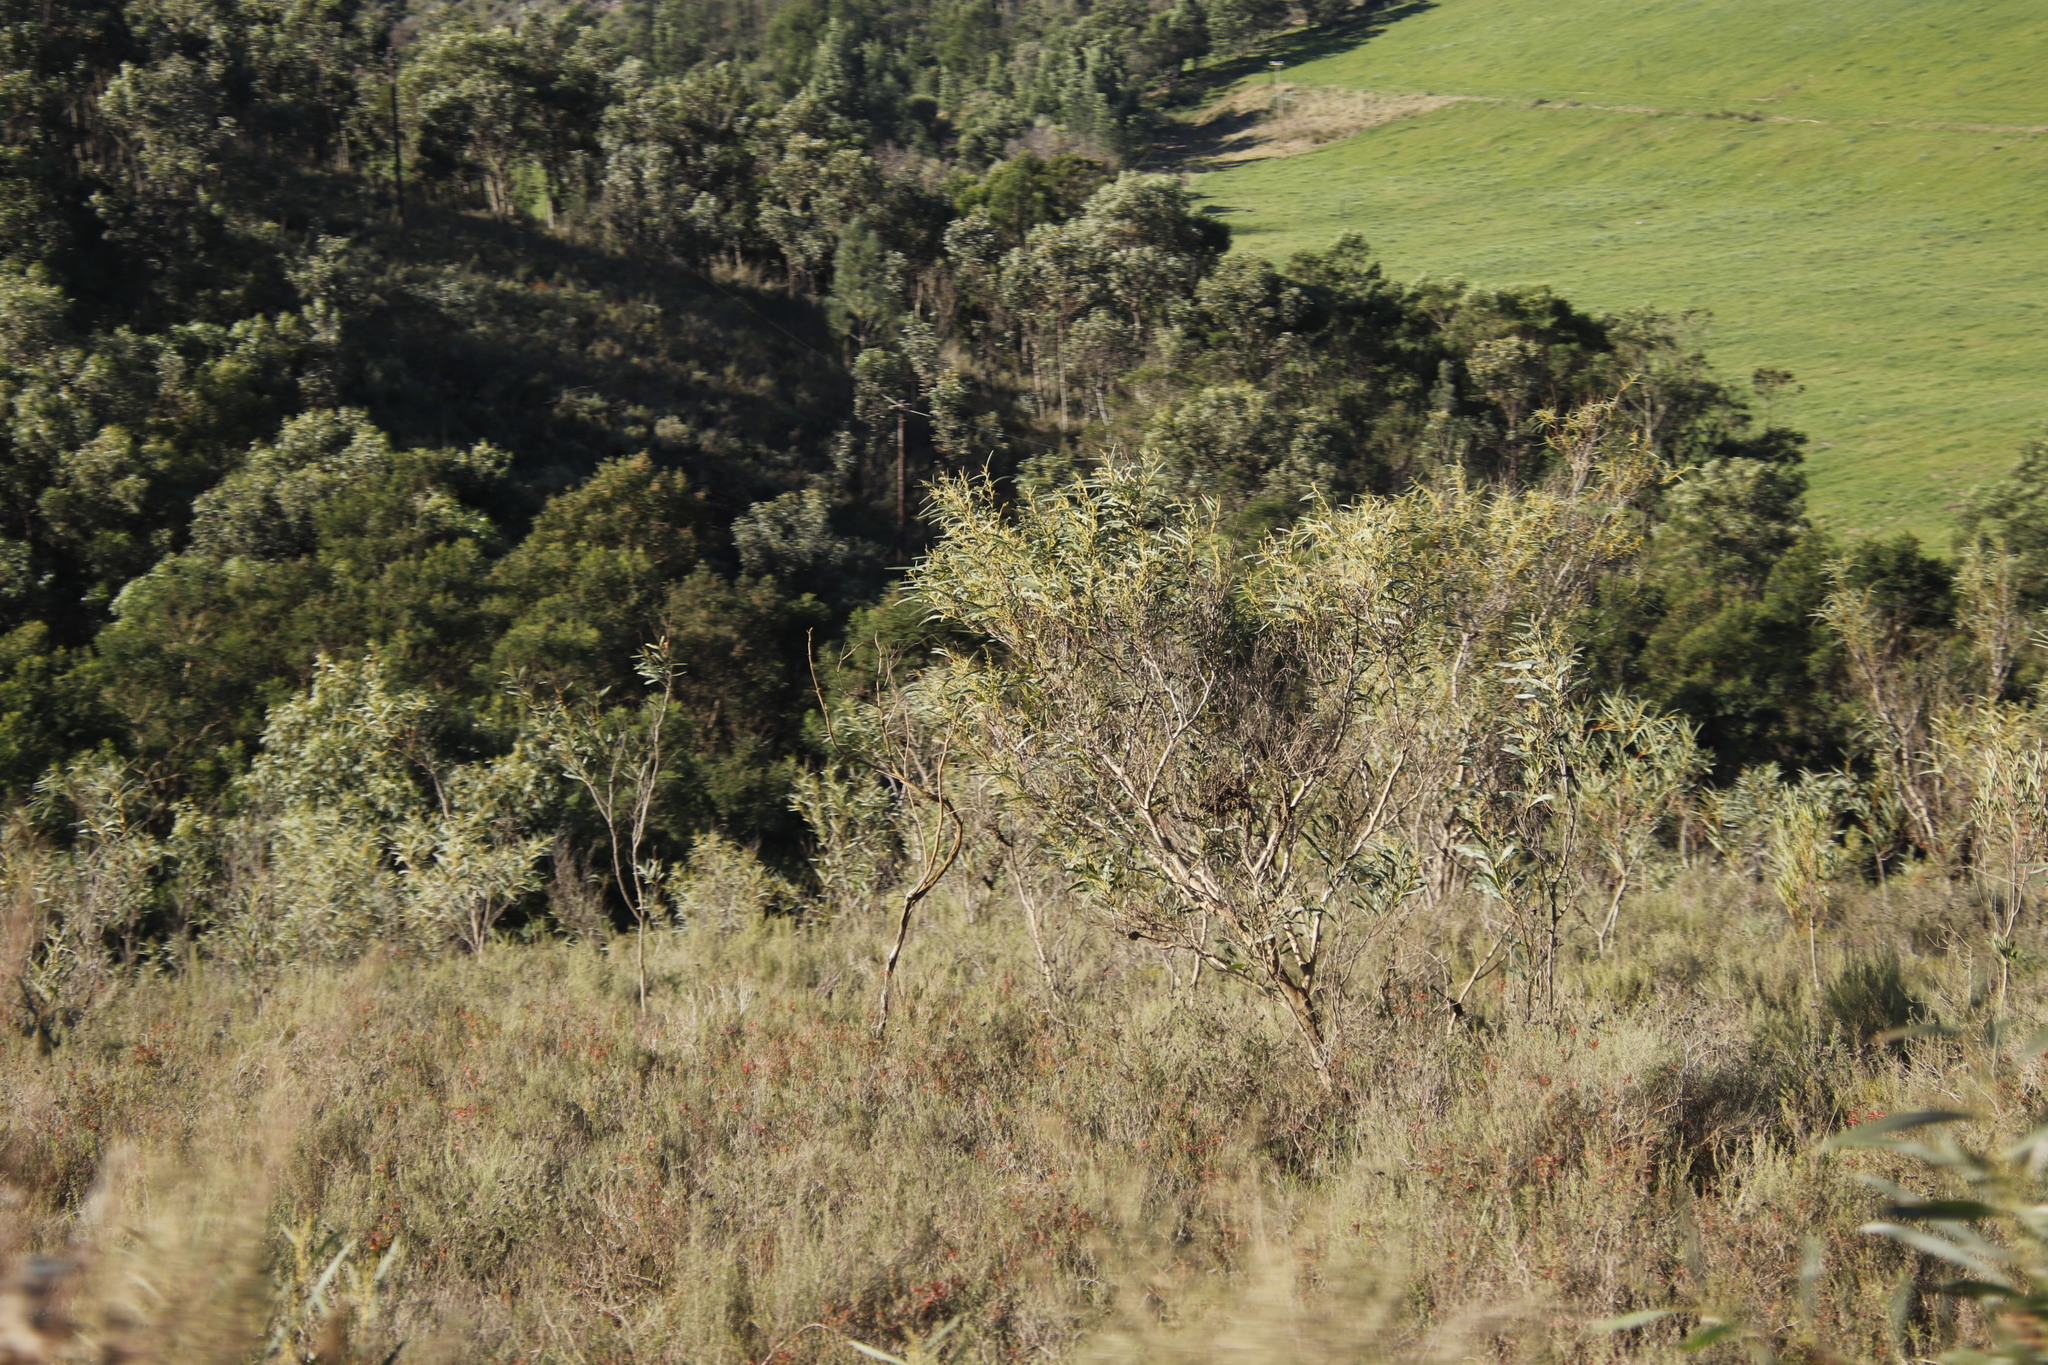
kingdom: Plantae
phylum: Tracheophyta
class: Magnoliopsida
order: Fabales
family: Fabaceae
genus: Acacia
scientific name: Acacia saligna
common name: Orange wattle
